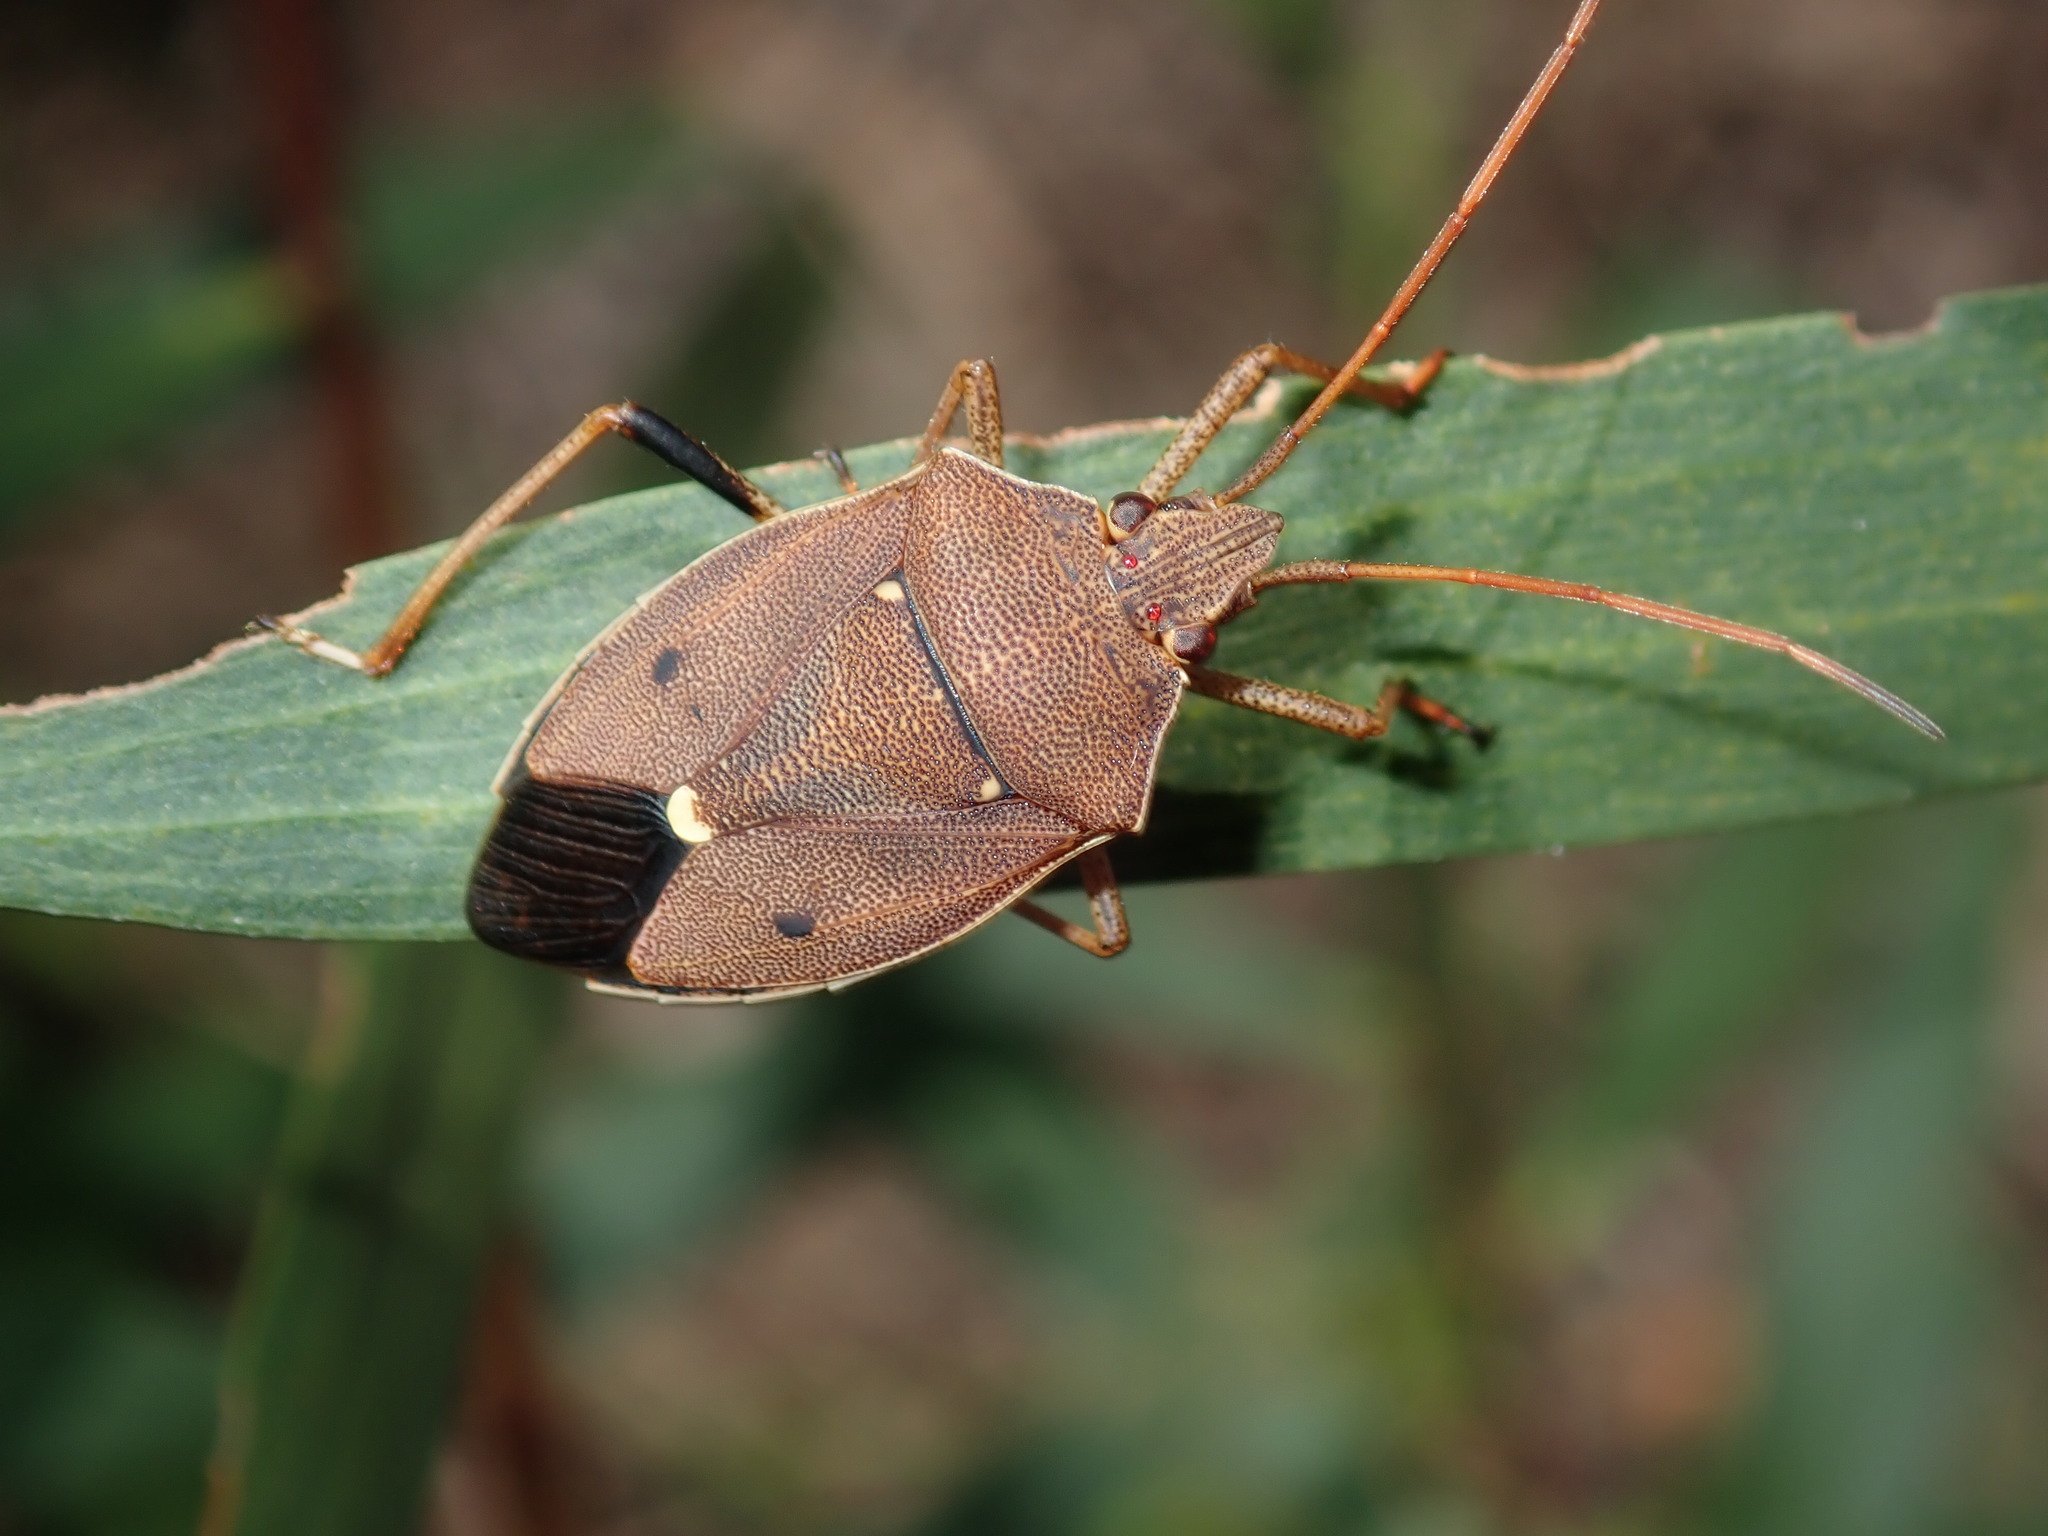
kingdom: Animalia
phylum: Arthropoda
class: Insecta
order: Hemiptera
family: Pentatomidae
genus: Poecilometis
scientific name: Poecilometis
